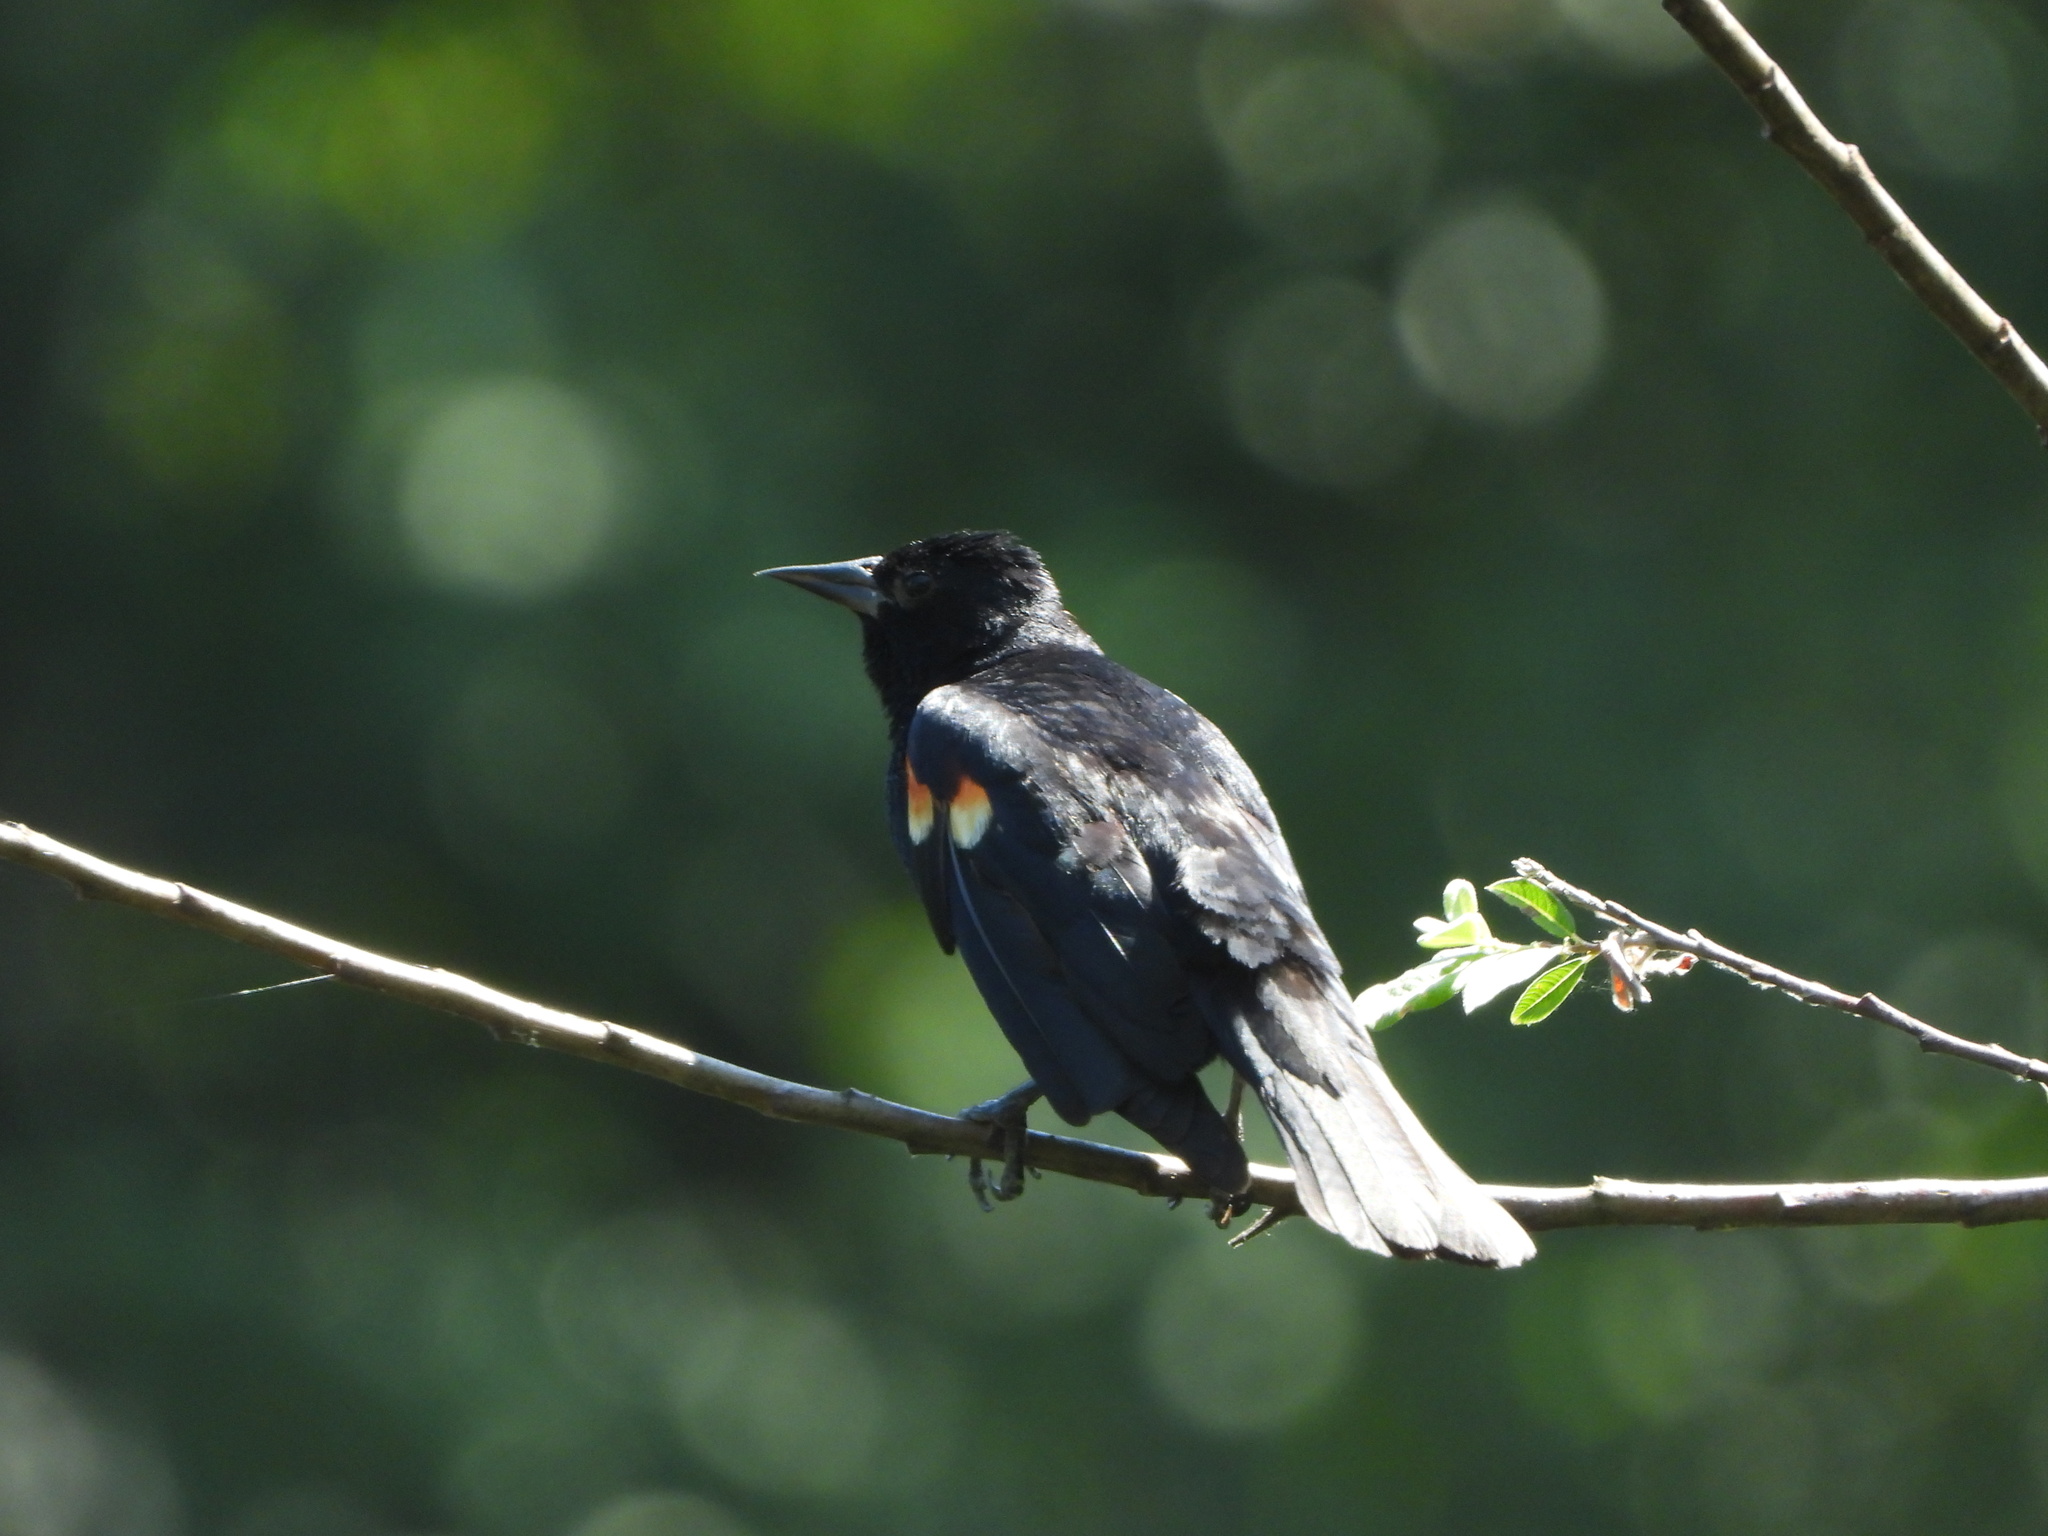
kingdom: Animalia
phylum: Chordata
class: Aves
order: Passeriformes
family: Icteridae
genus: Agelaius
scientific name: Agelaius phoeniceus
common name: Red-winged blackbird
